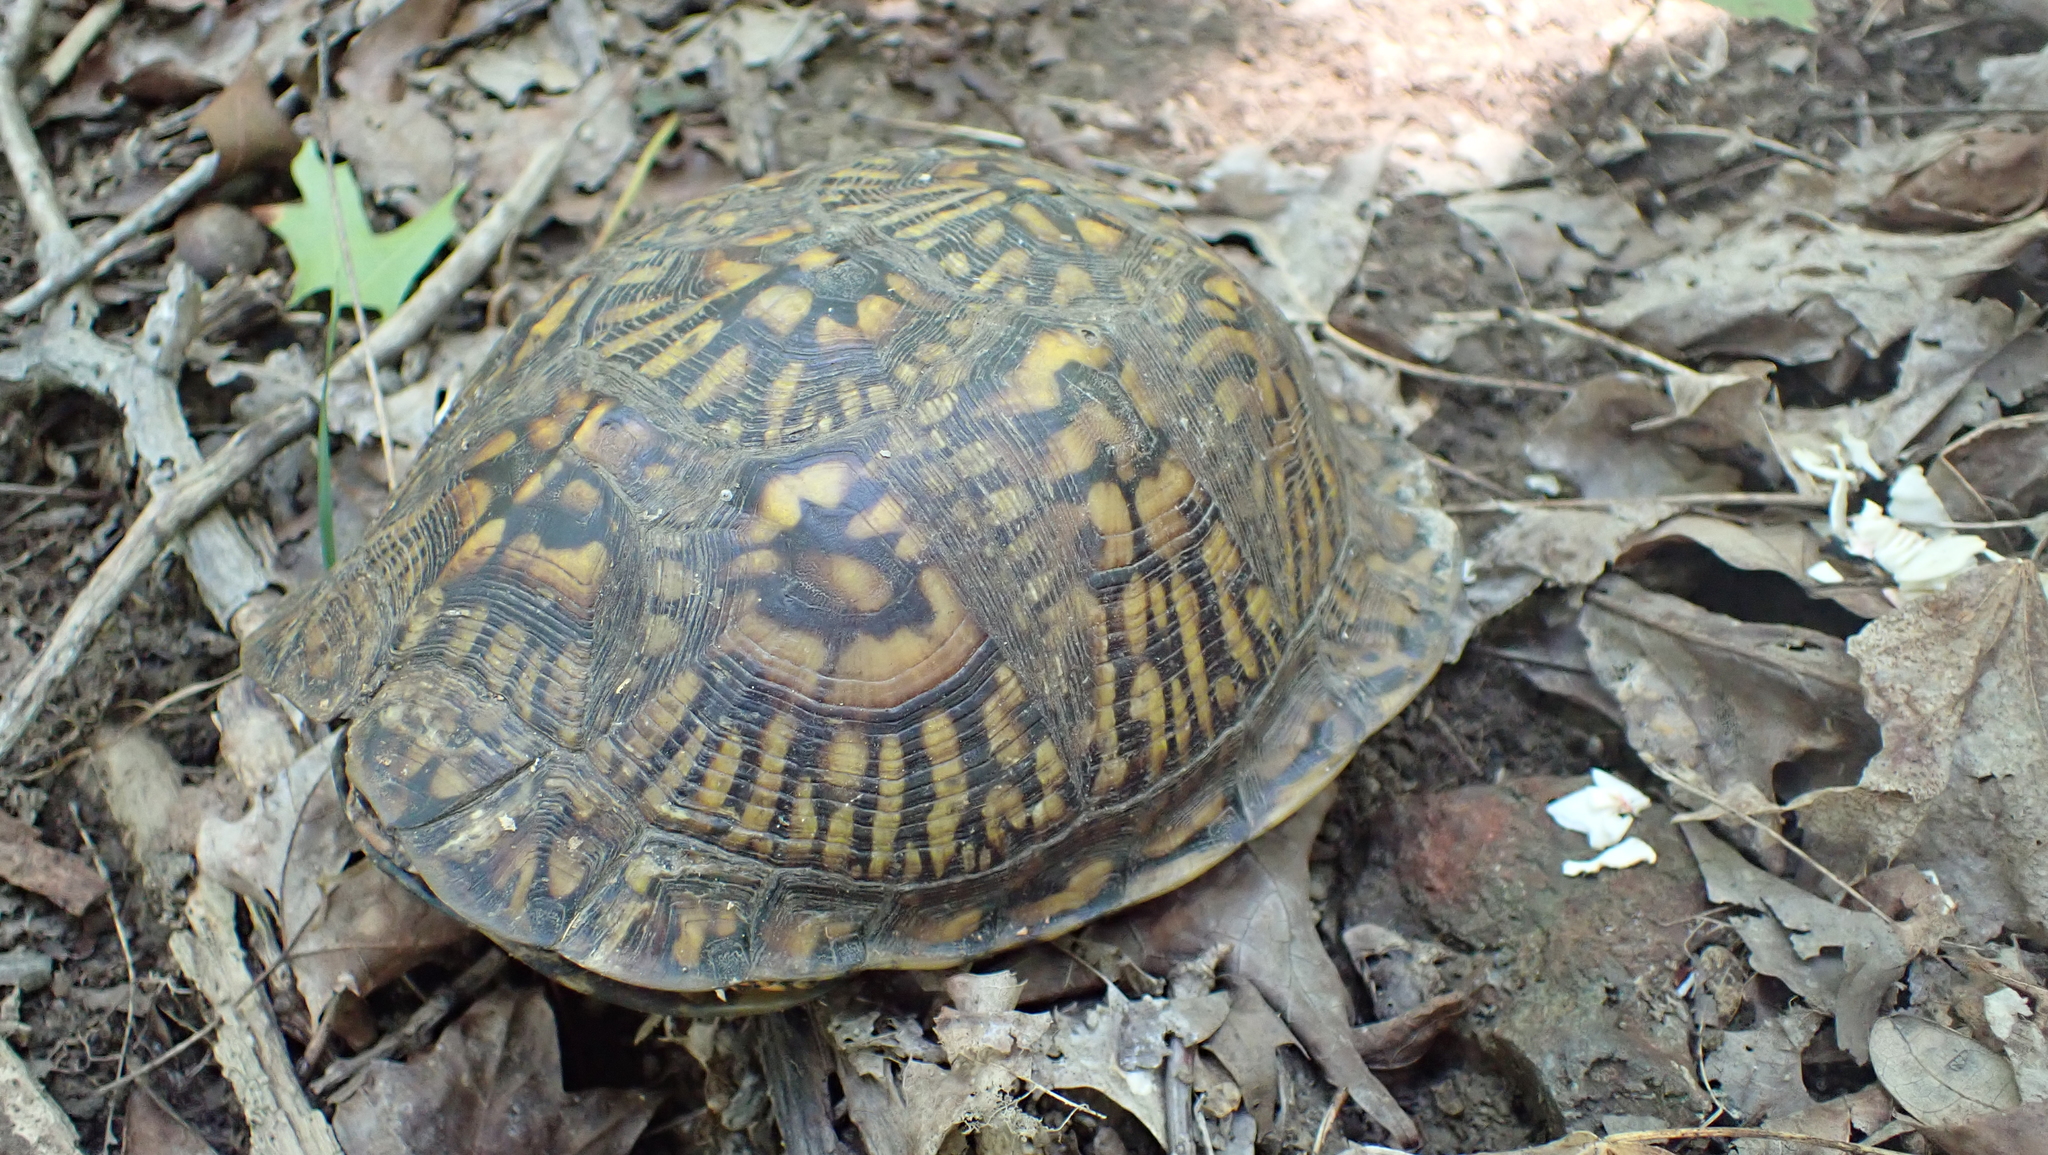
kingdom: Animalia
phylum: Chordata
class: Testudines
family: Emydidae
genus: Terrapene
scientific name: Terrapene carolina
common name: Common box turtle
